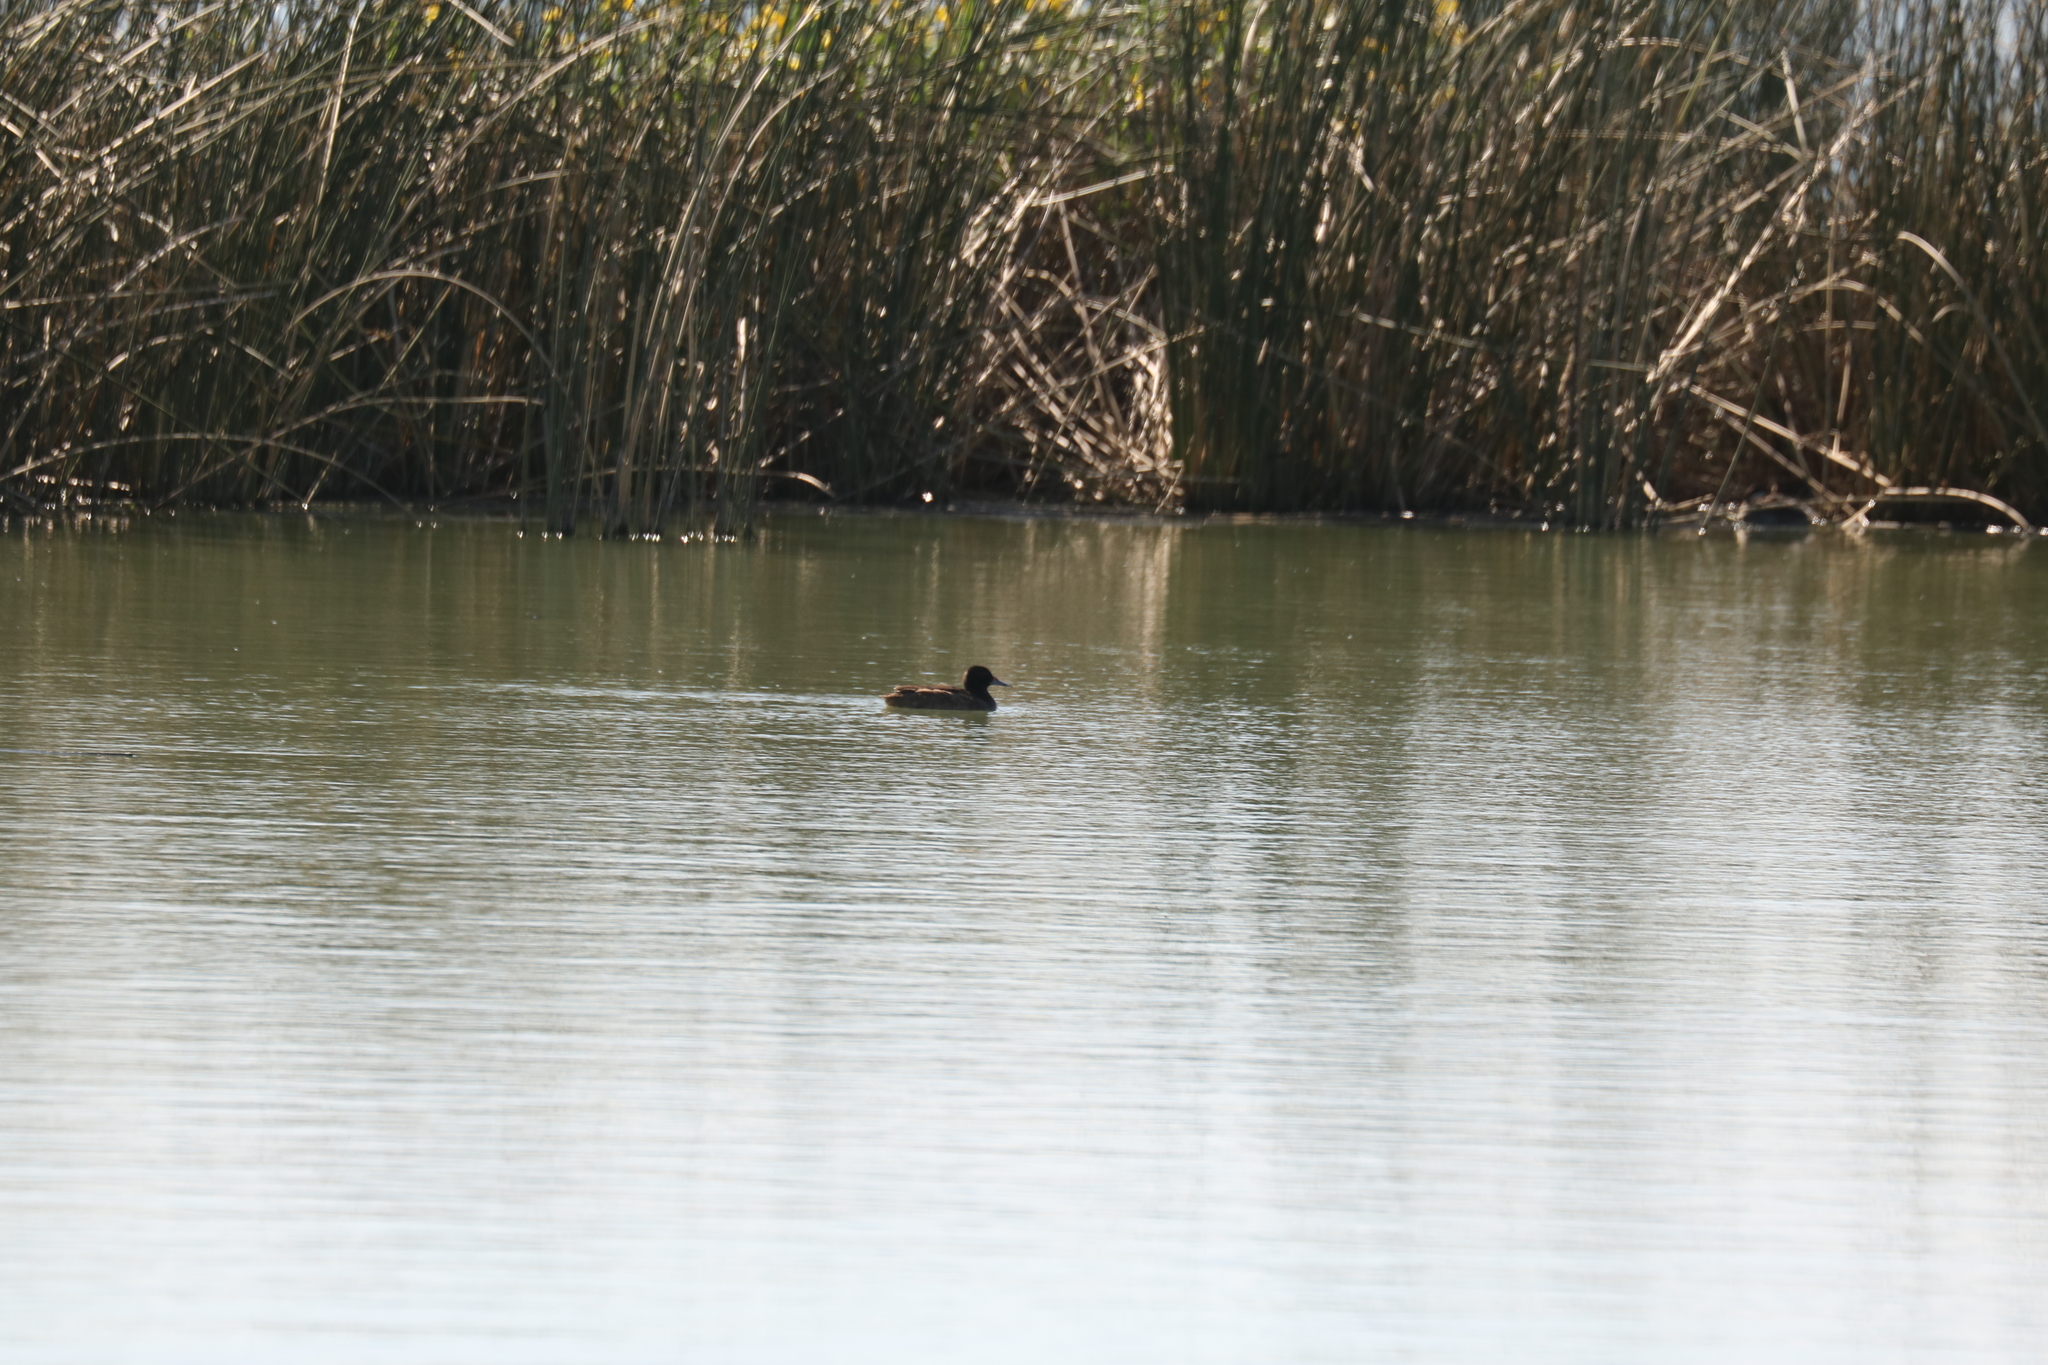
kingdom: Animalia
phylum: Chordata
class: Aves
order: Anseriformes
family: Anatidae
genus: Heteronetta
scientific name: Heteronetta atricapilla
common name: Black-headed duck
